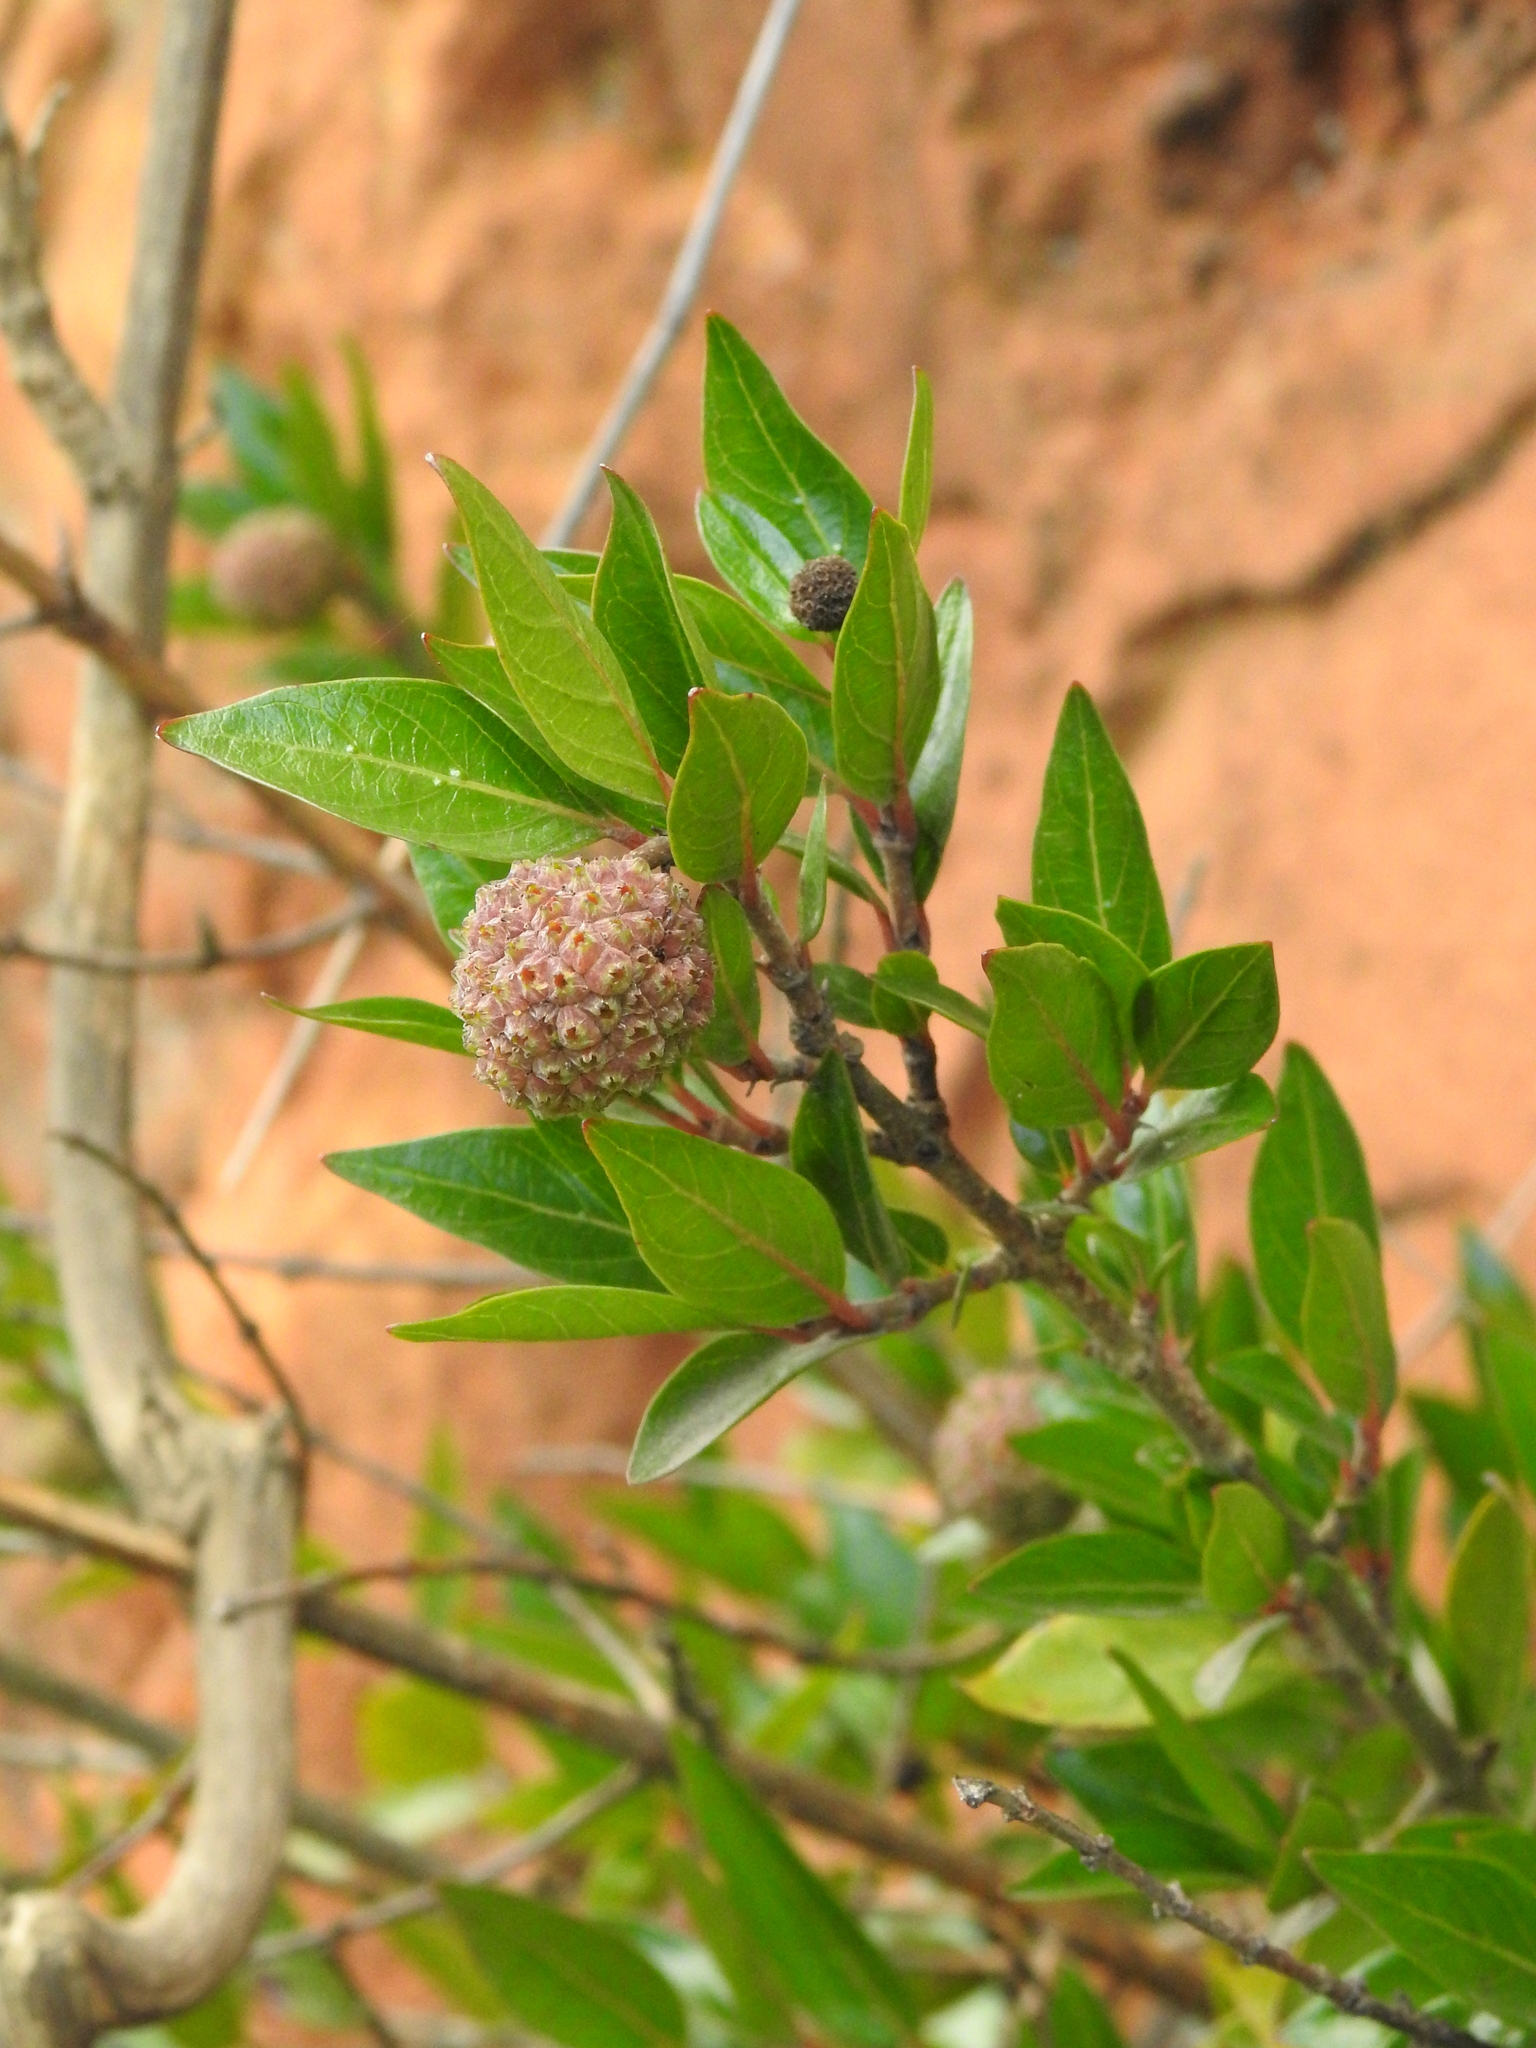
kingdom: Plantae
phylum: Tracheophyta
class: Magnoliopsida
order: Gentianales
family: Rubiaceae
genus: Cephalanthus
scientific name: Cephalanthus natalensis
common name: Strawberry bush
